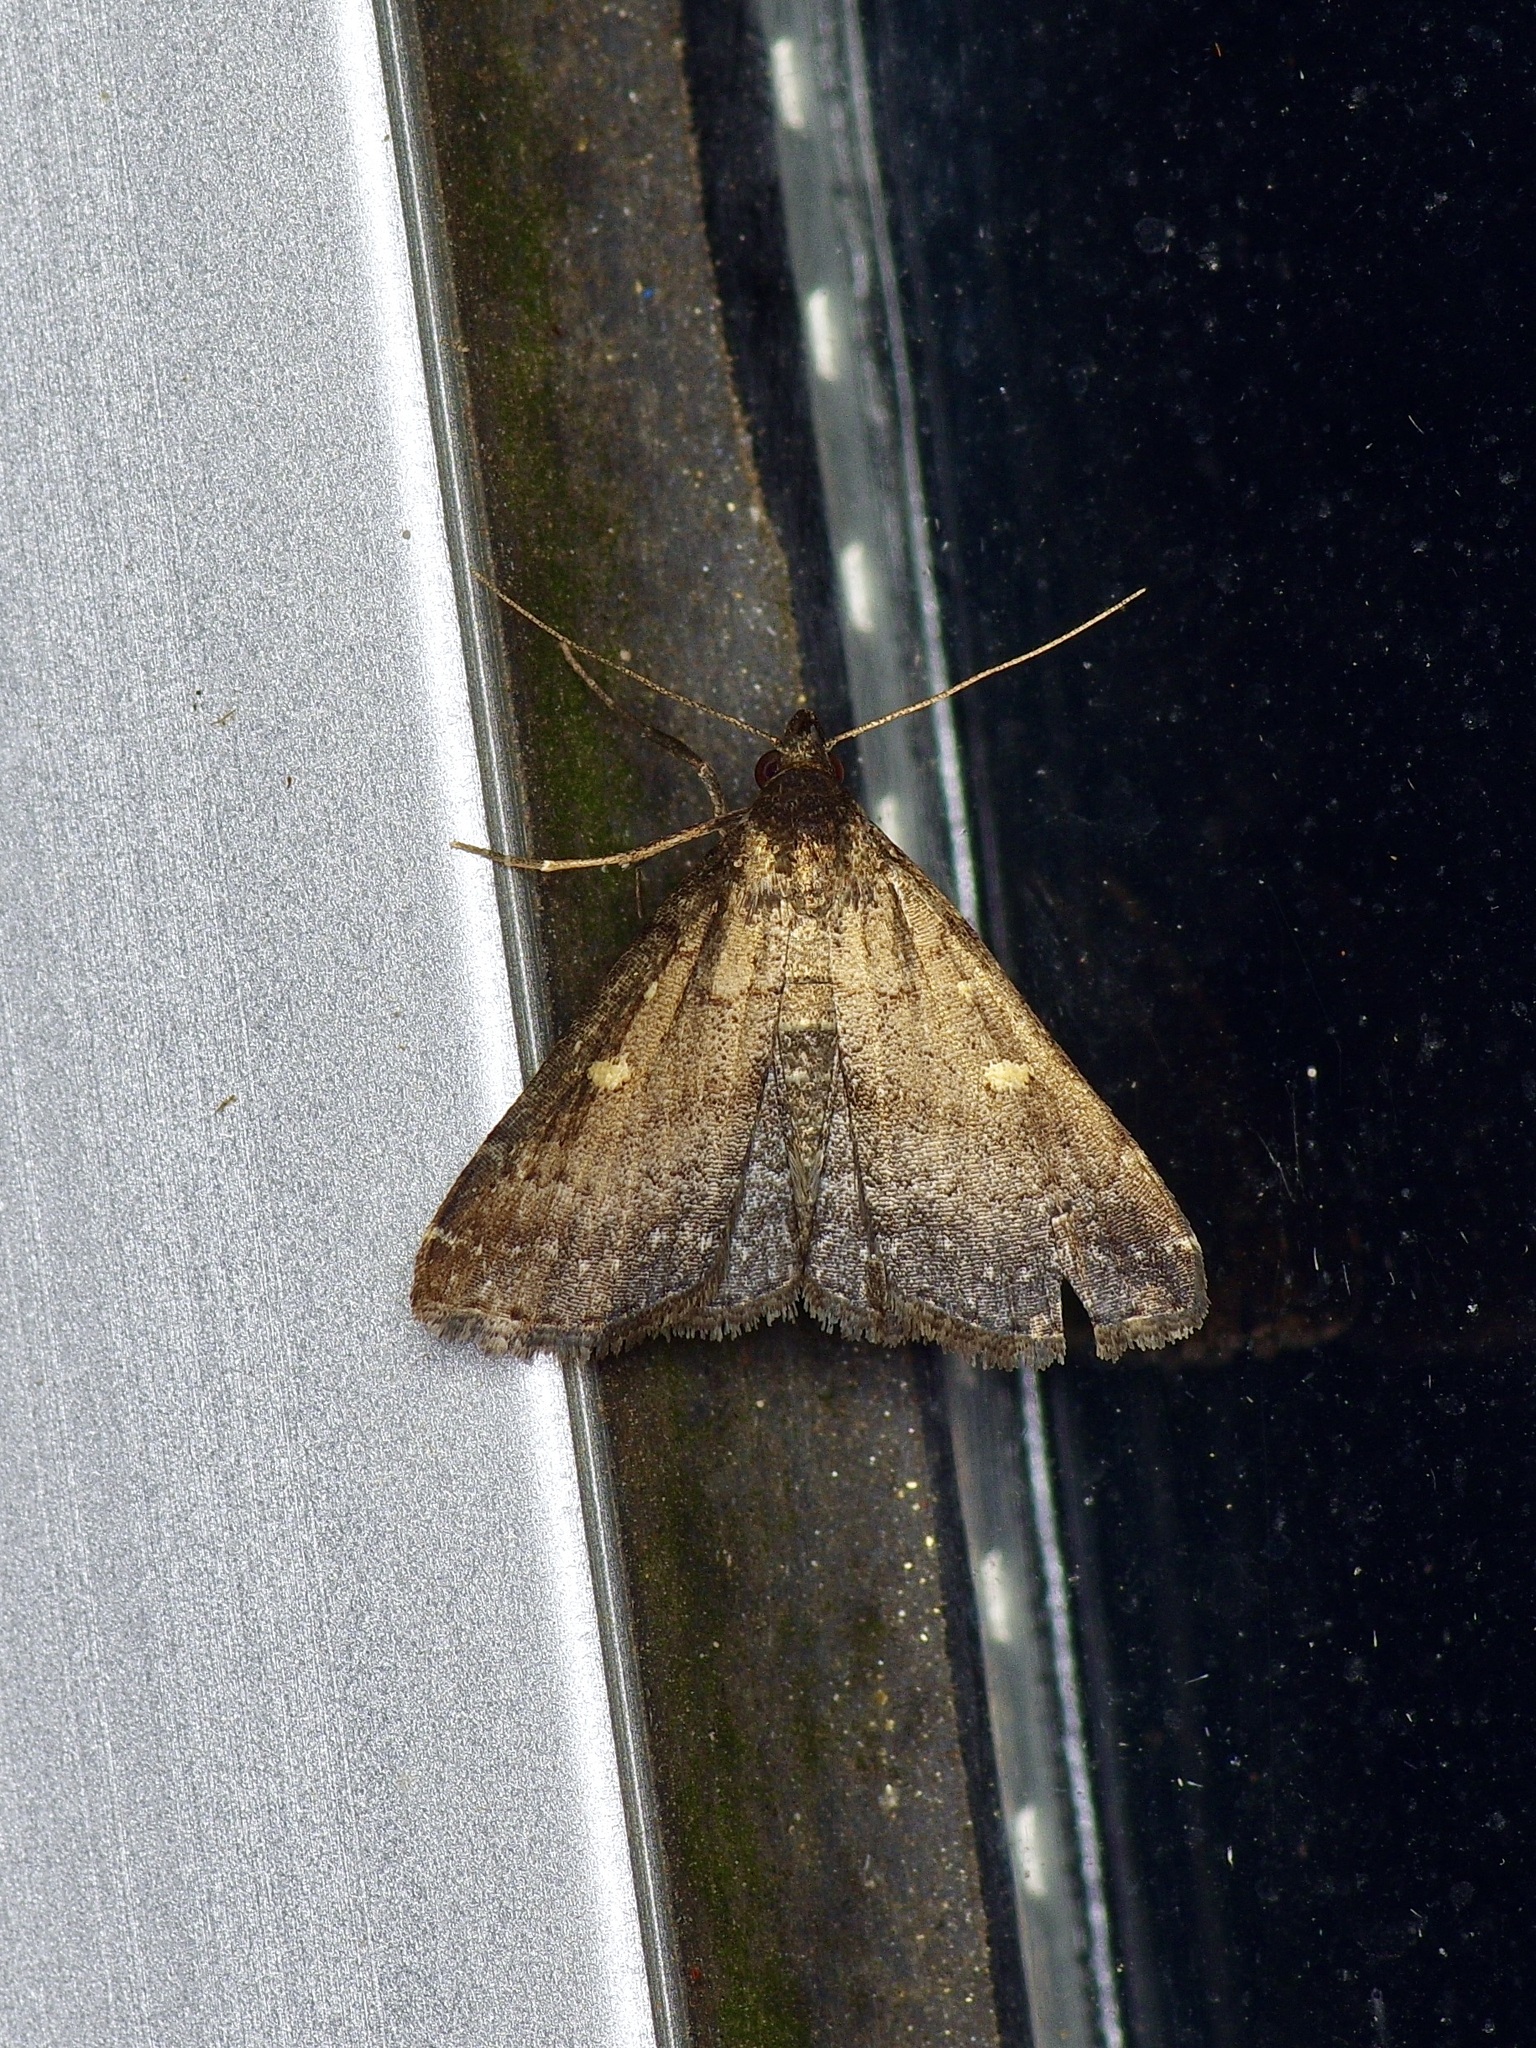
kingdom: Animalia
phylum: Arthropoda
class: Insecta
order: Lepidoptera
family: Erebidae
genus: Tetanolita
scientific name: Tetanolita mynesalis
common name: Smoky tetanolita moth
